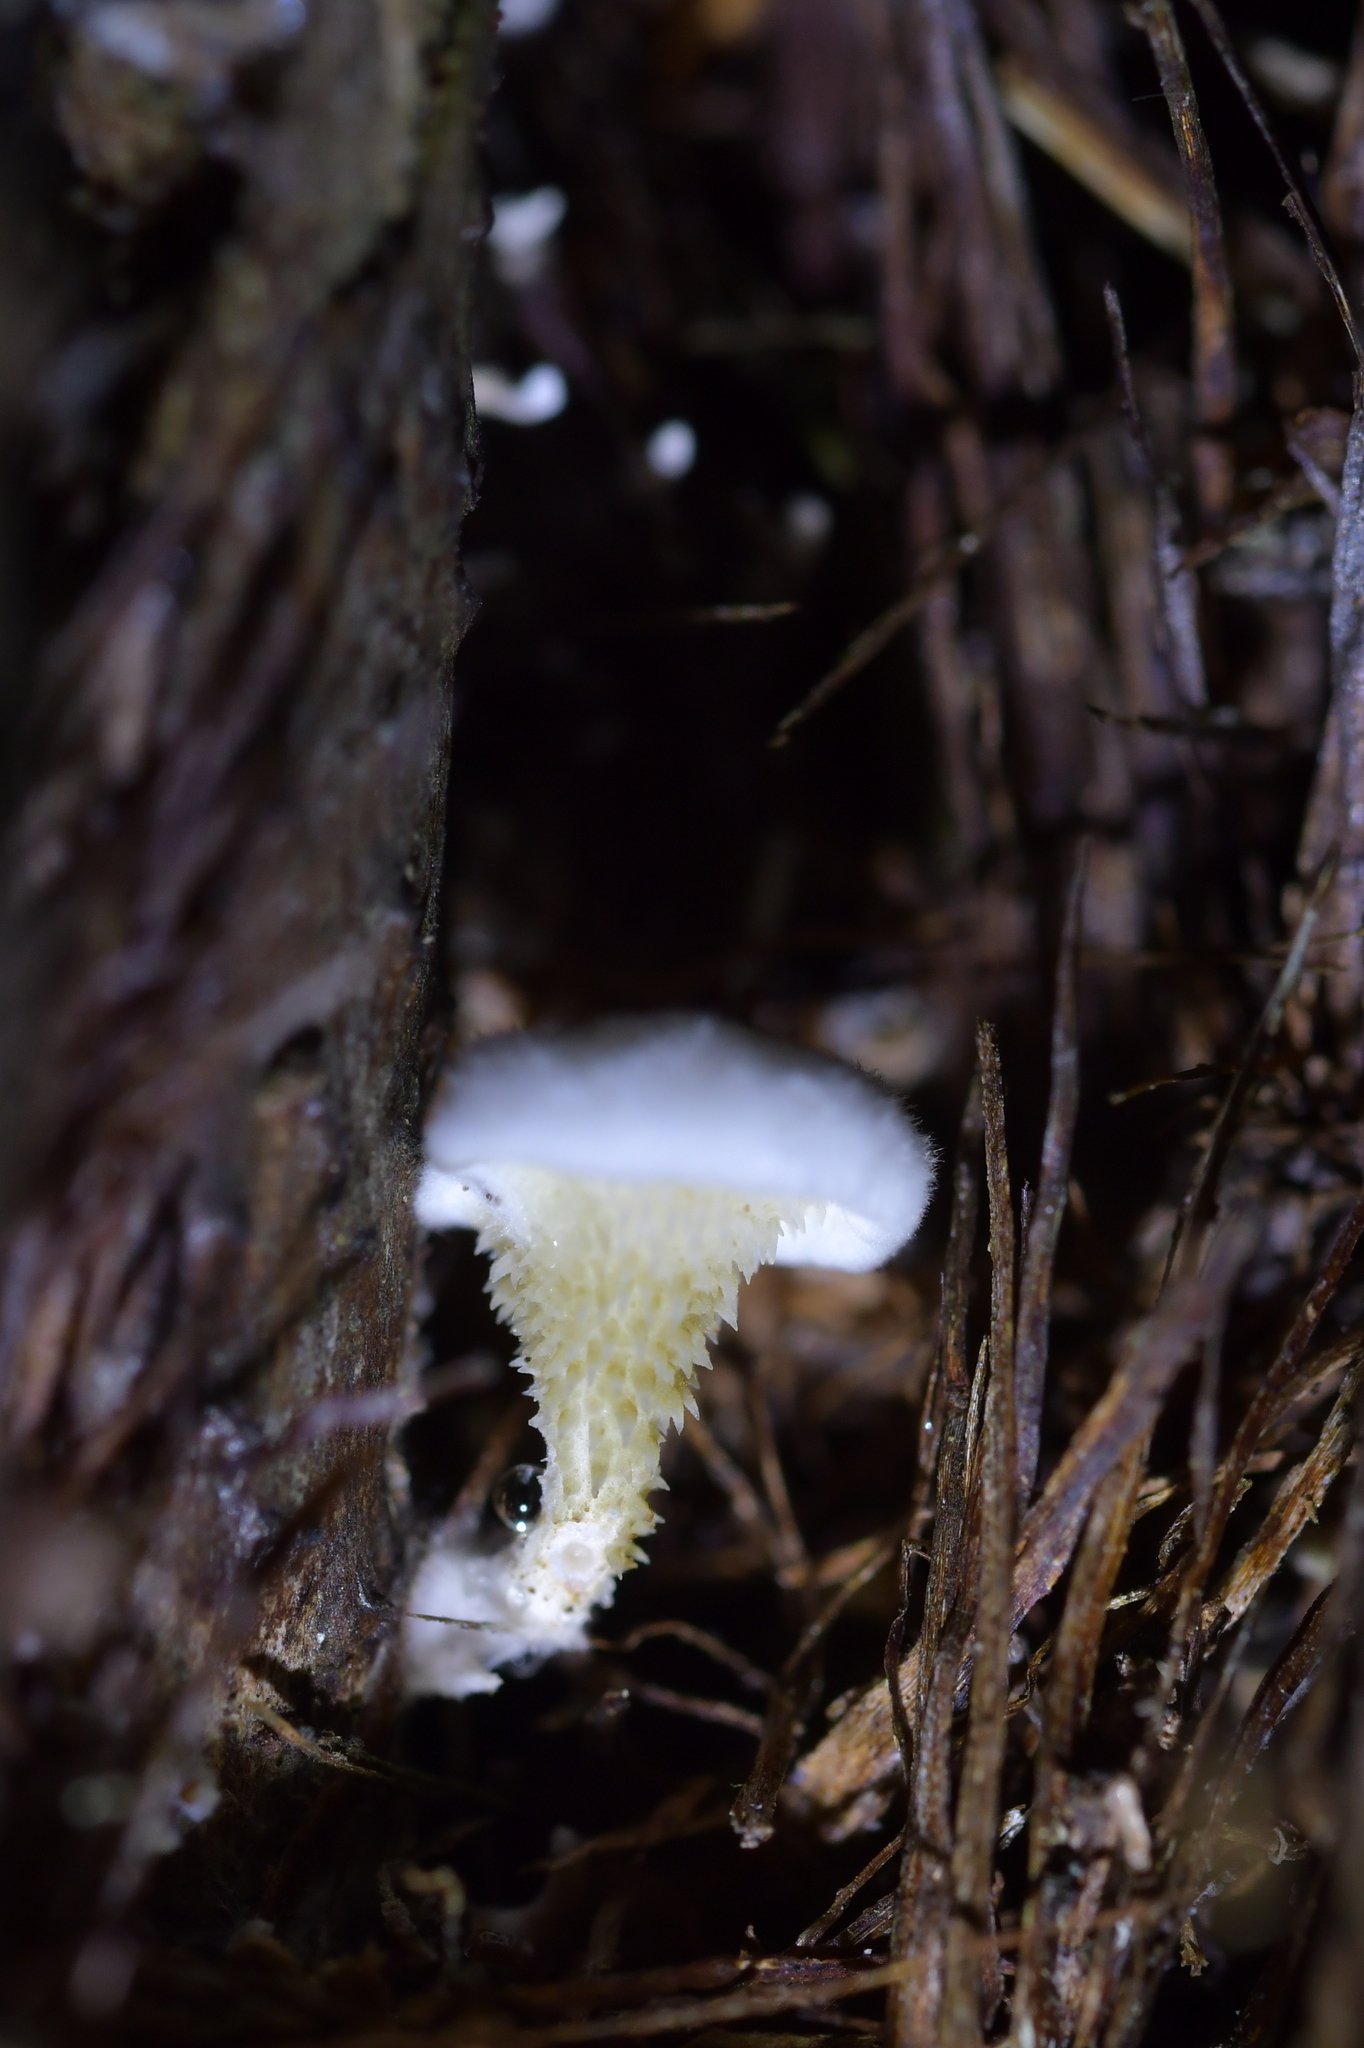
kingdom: Fungi
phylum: Basidiomycota
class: Agaricomycetes
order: Gomphales
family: Clavariadelphaceae
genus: Beenakia
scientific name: Beenakia dacostae
